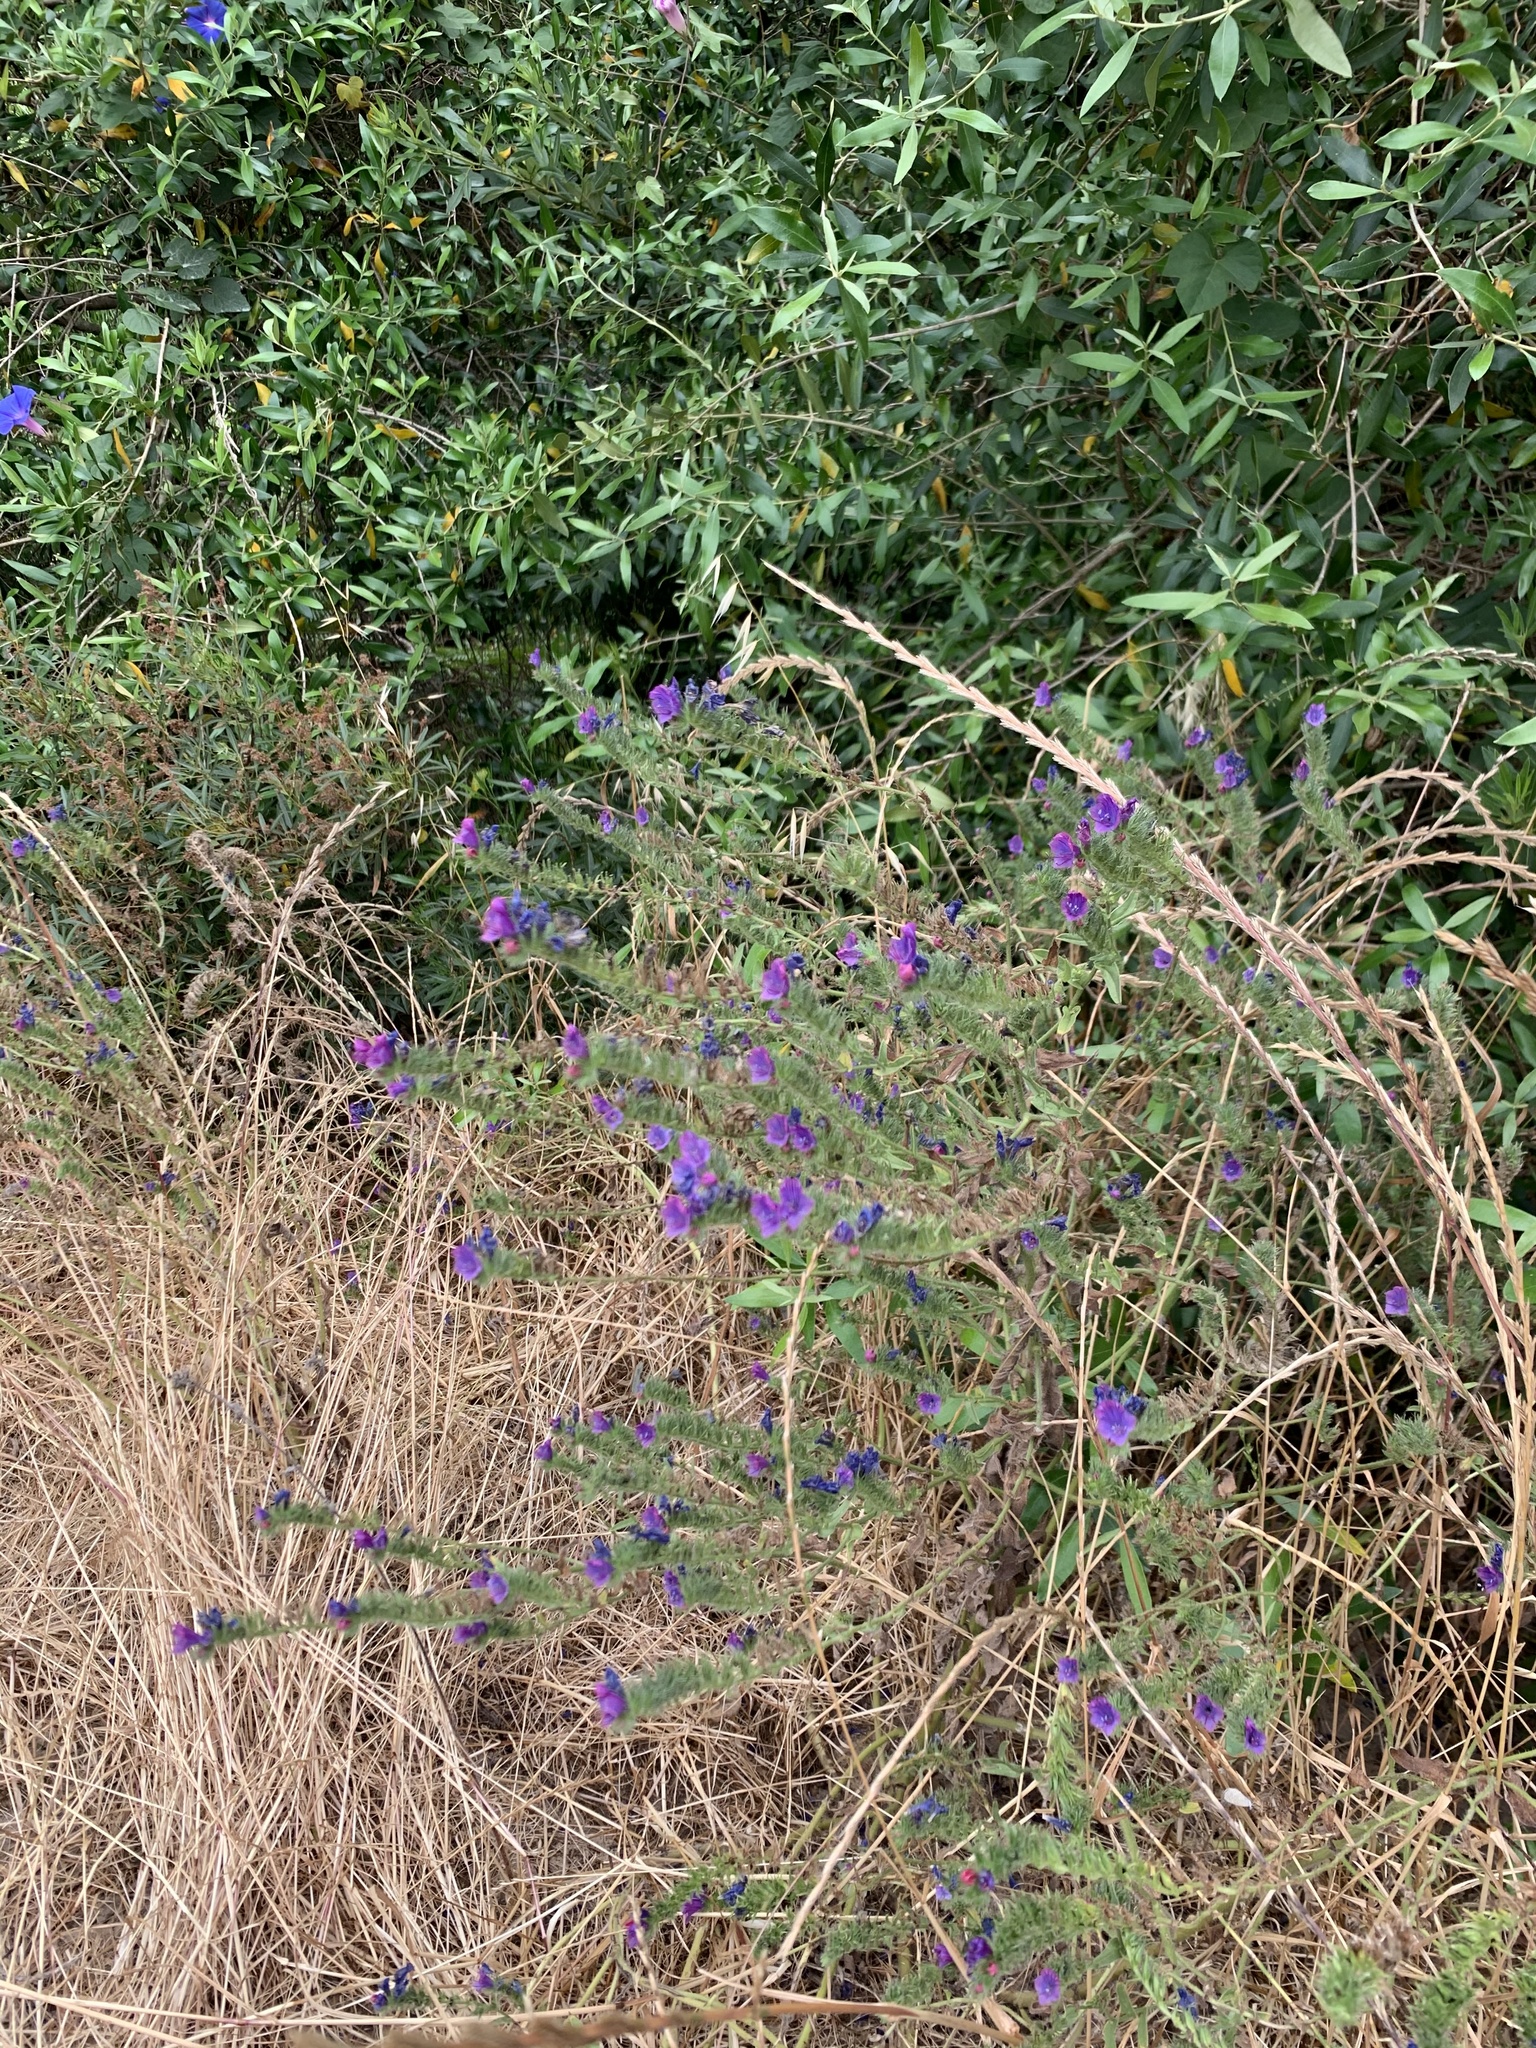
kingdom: Plantae
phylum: Tracheophyta
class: Magnoliopsida
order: Boraginales
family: Boraginaceae
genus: Echium
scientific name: Echium plantagineum
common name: Purple viper's-bugloss
